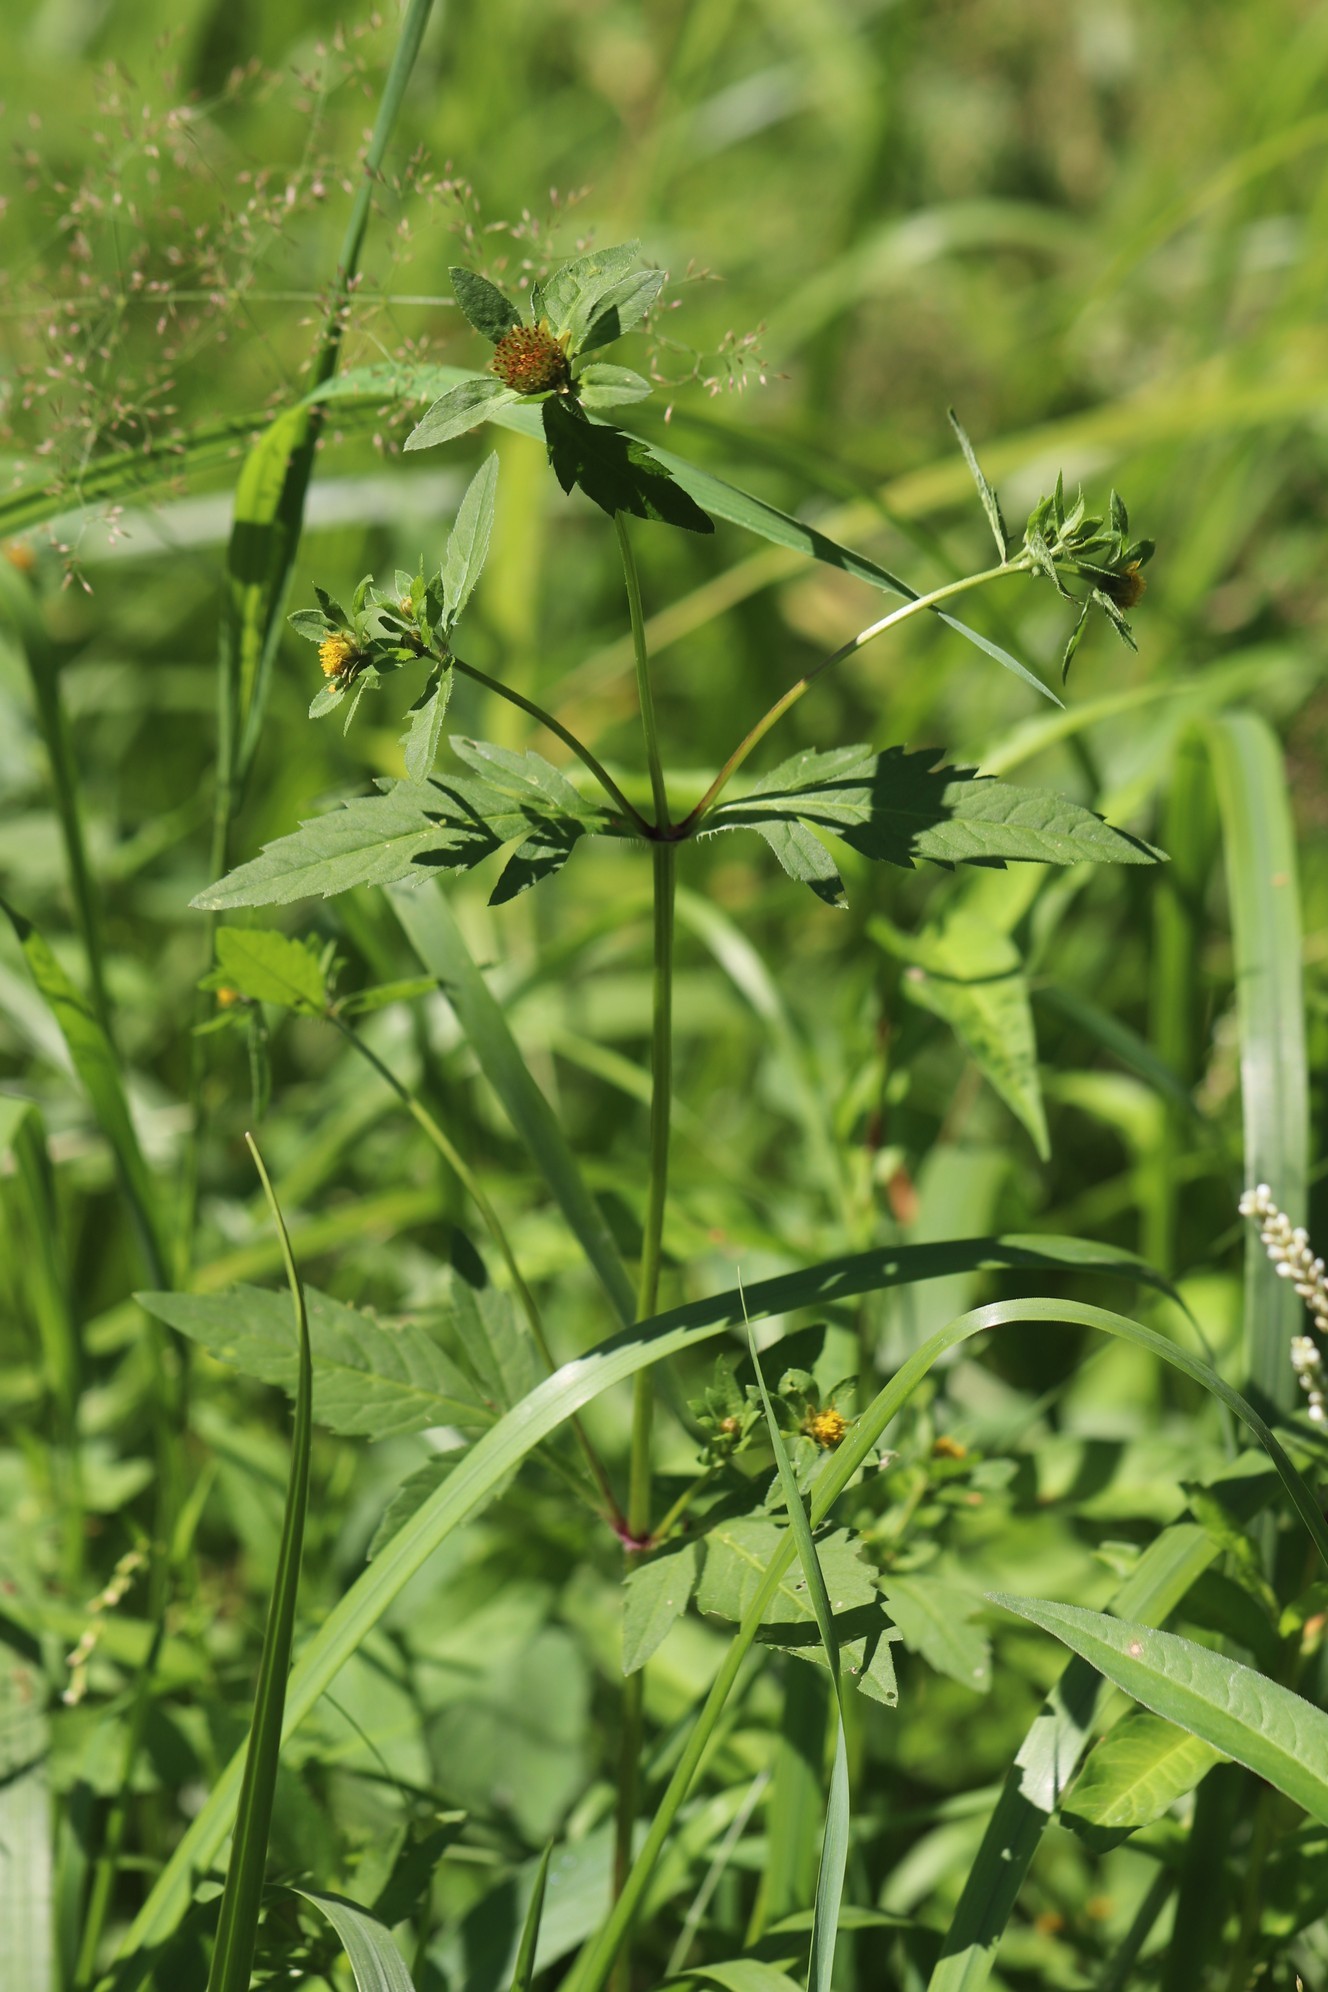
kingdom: Plantae
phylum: Tracheophyta
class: Magnoliopsida
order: Asterales
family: Asteraceae
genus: Bidens
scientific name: Bidens tripartita
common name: Trifid bur-marigold
